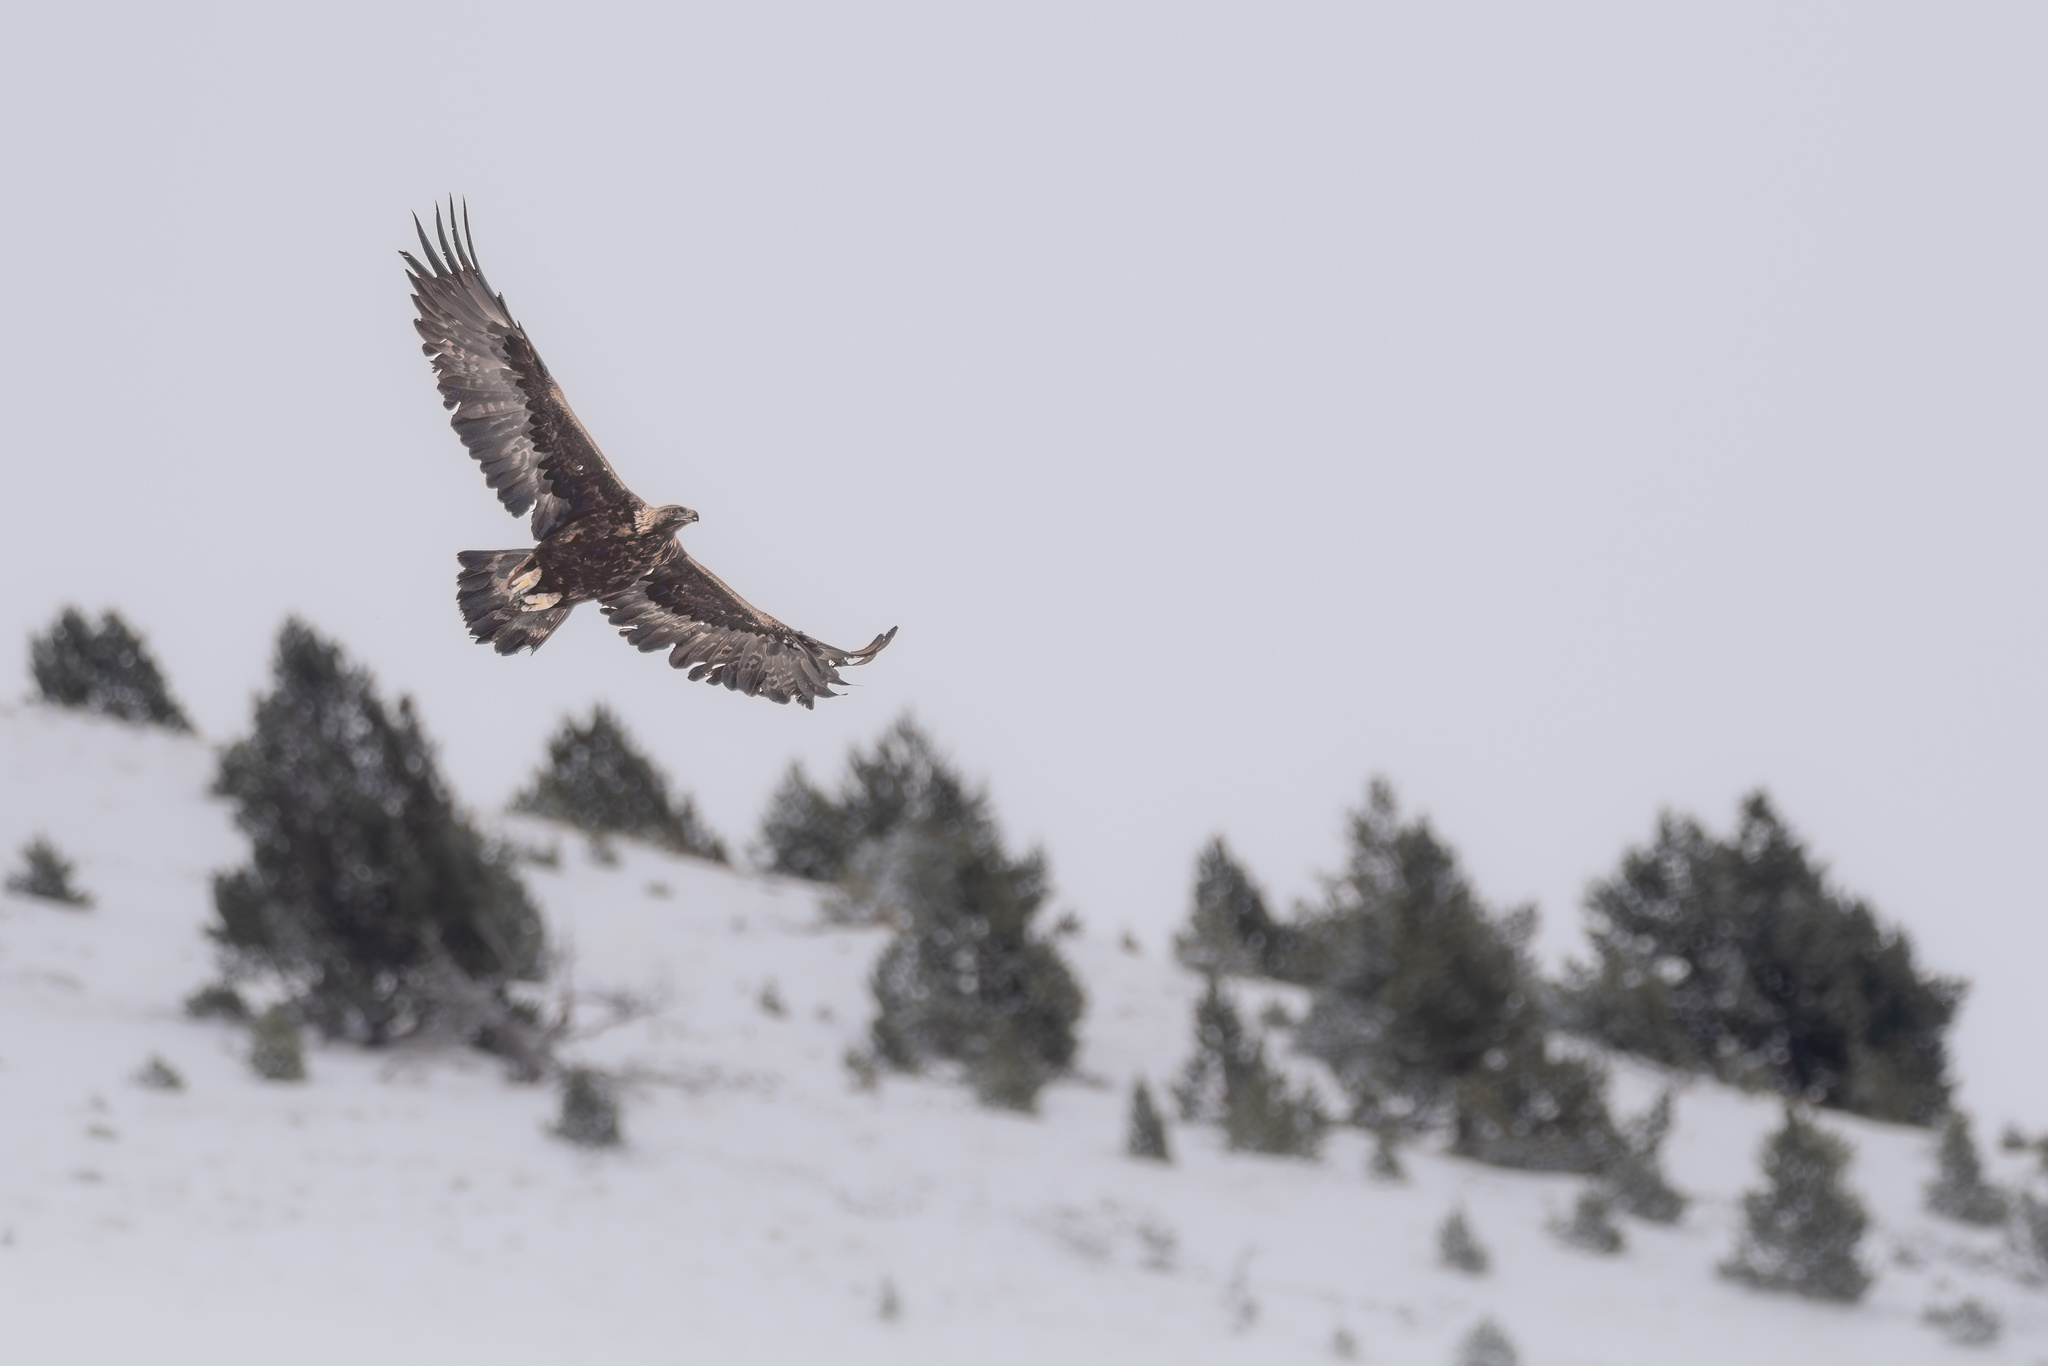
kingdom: Animalia
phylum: Chordata
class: Aves
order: Accipitriformes
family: Accipitridae
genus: Aquila
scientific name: Aquila chrysaetos
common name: Golden eagle
